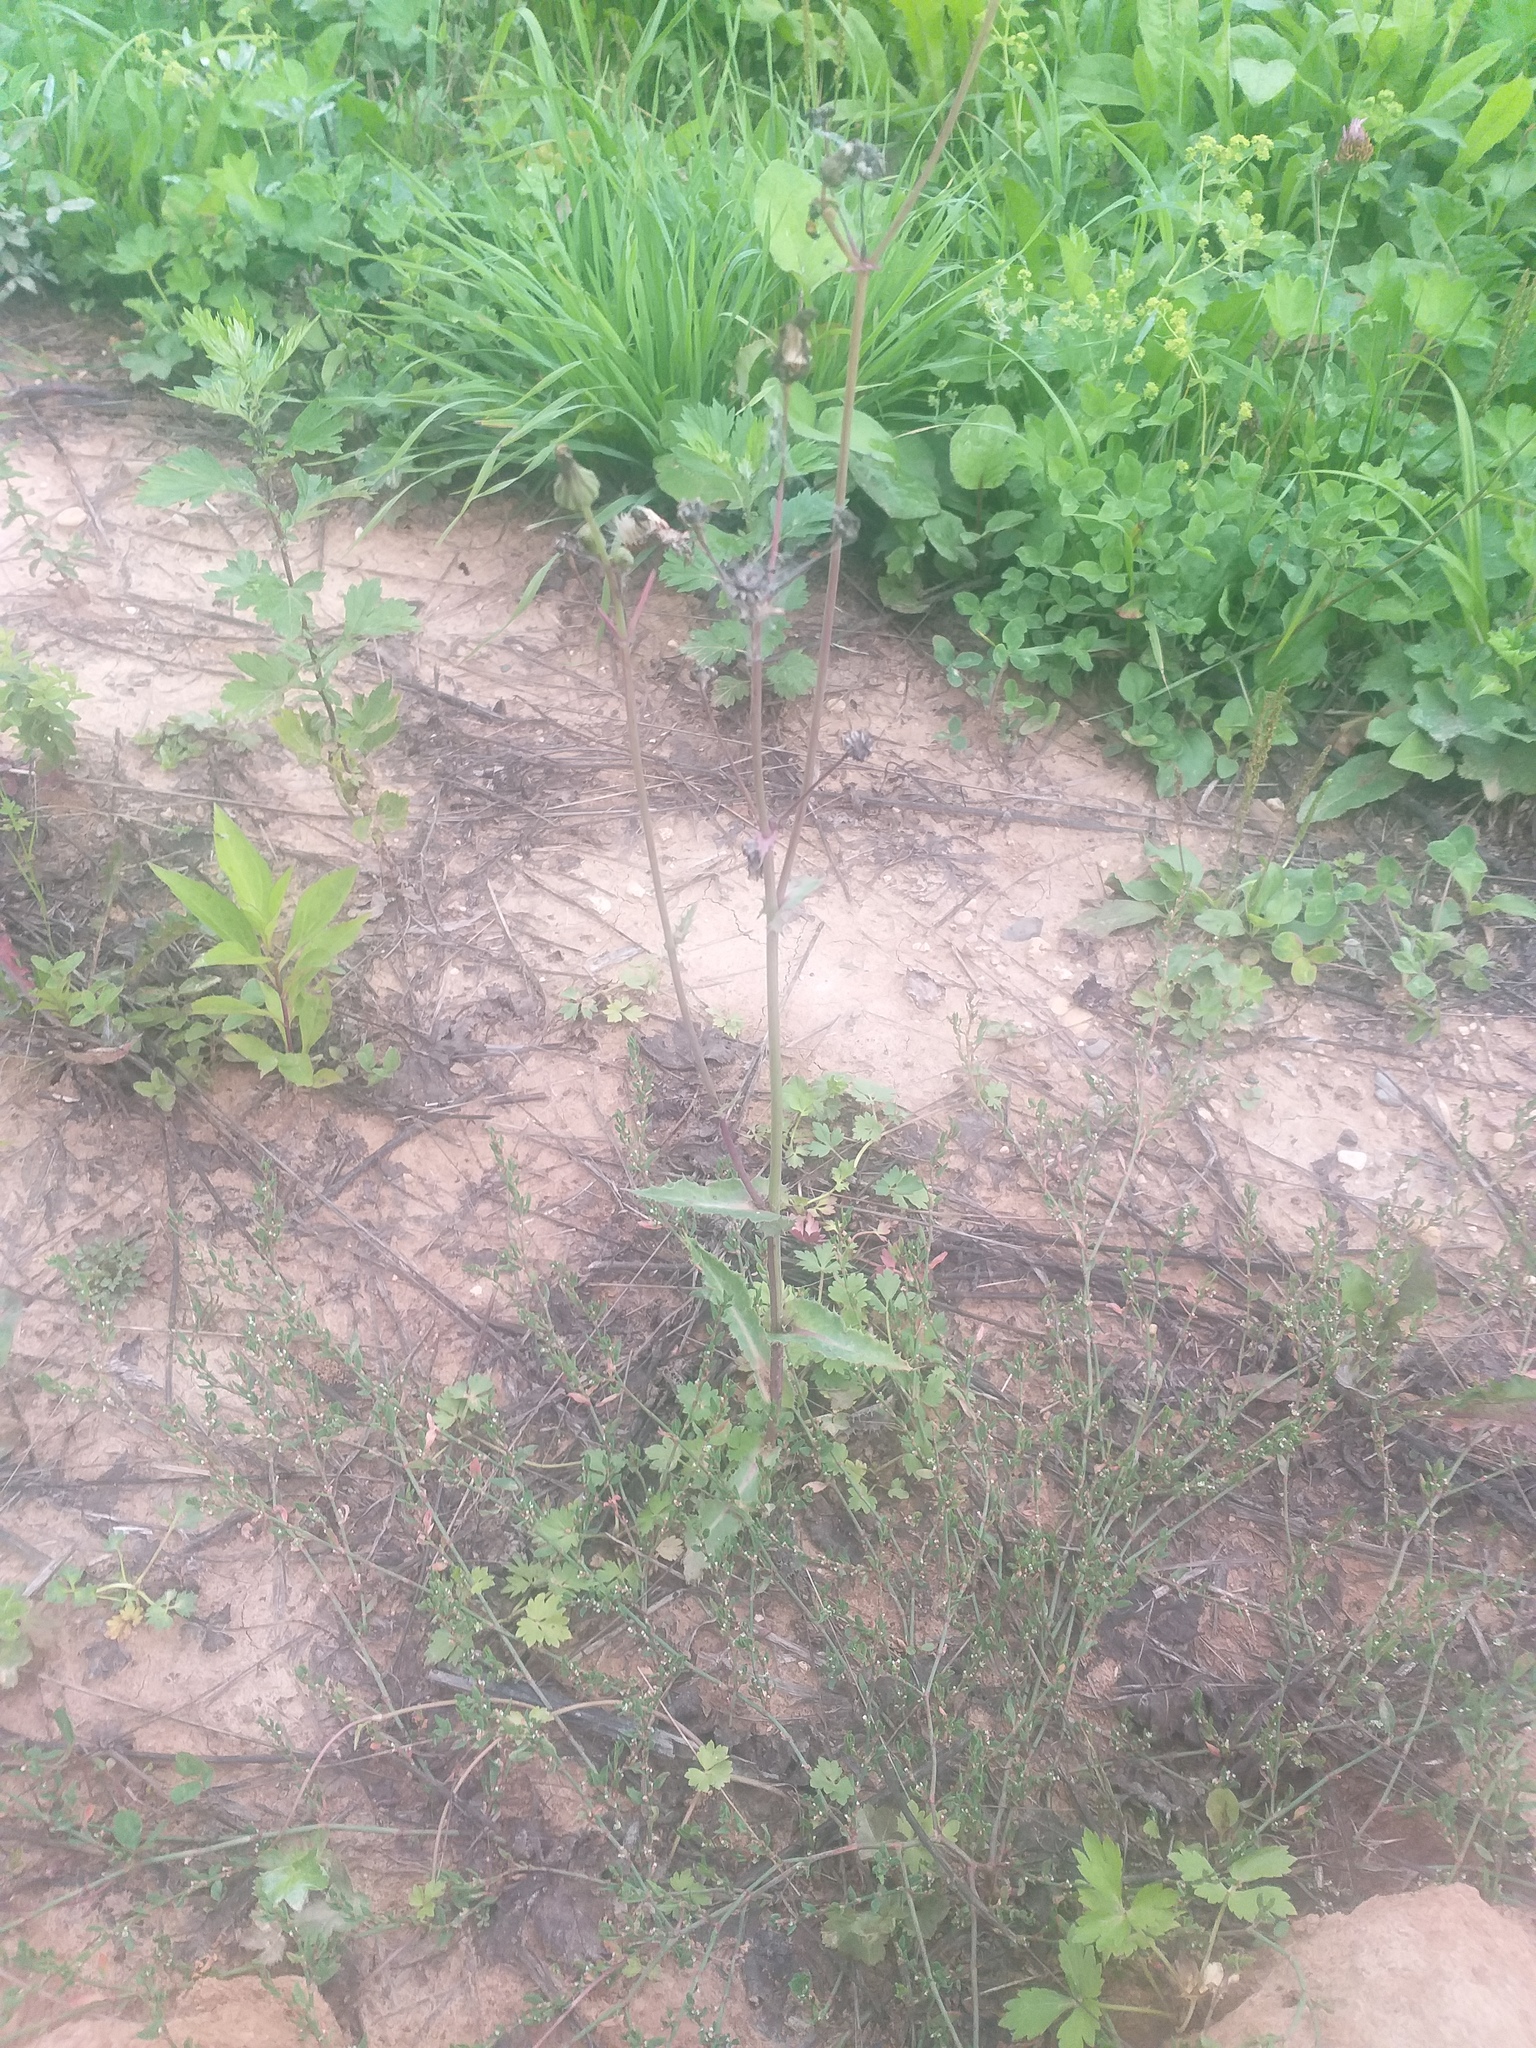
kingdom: Plantae
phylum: Tracheophyta
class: Magnoliopsida
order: Asterales
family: Asteraceae
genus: Sonchus
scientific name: Sonchus asper
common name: Prickly sow-thistle
